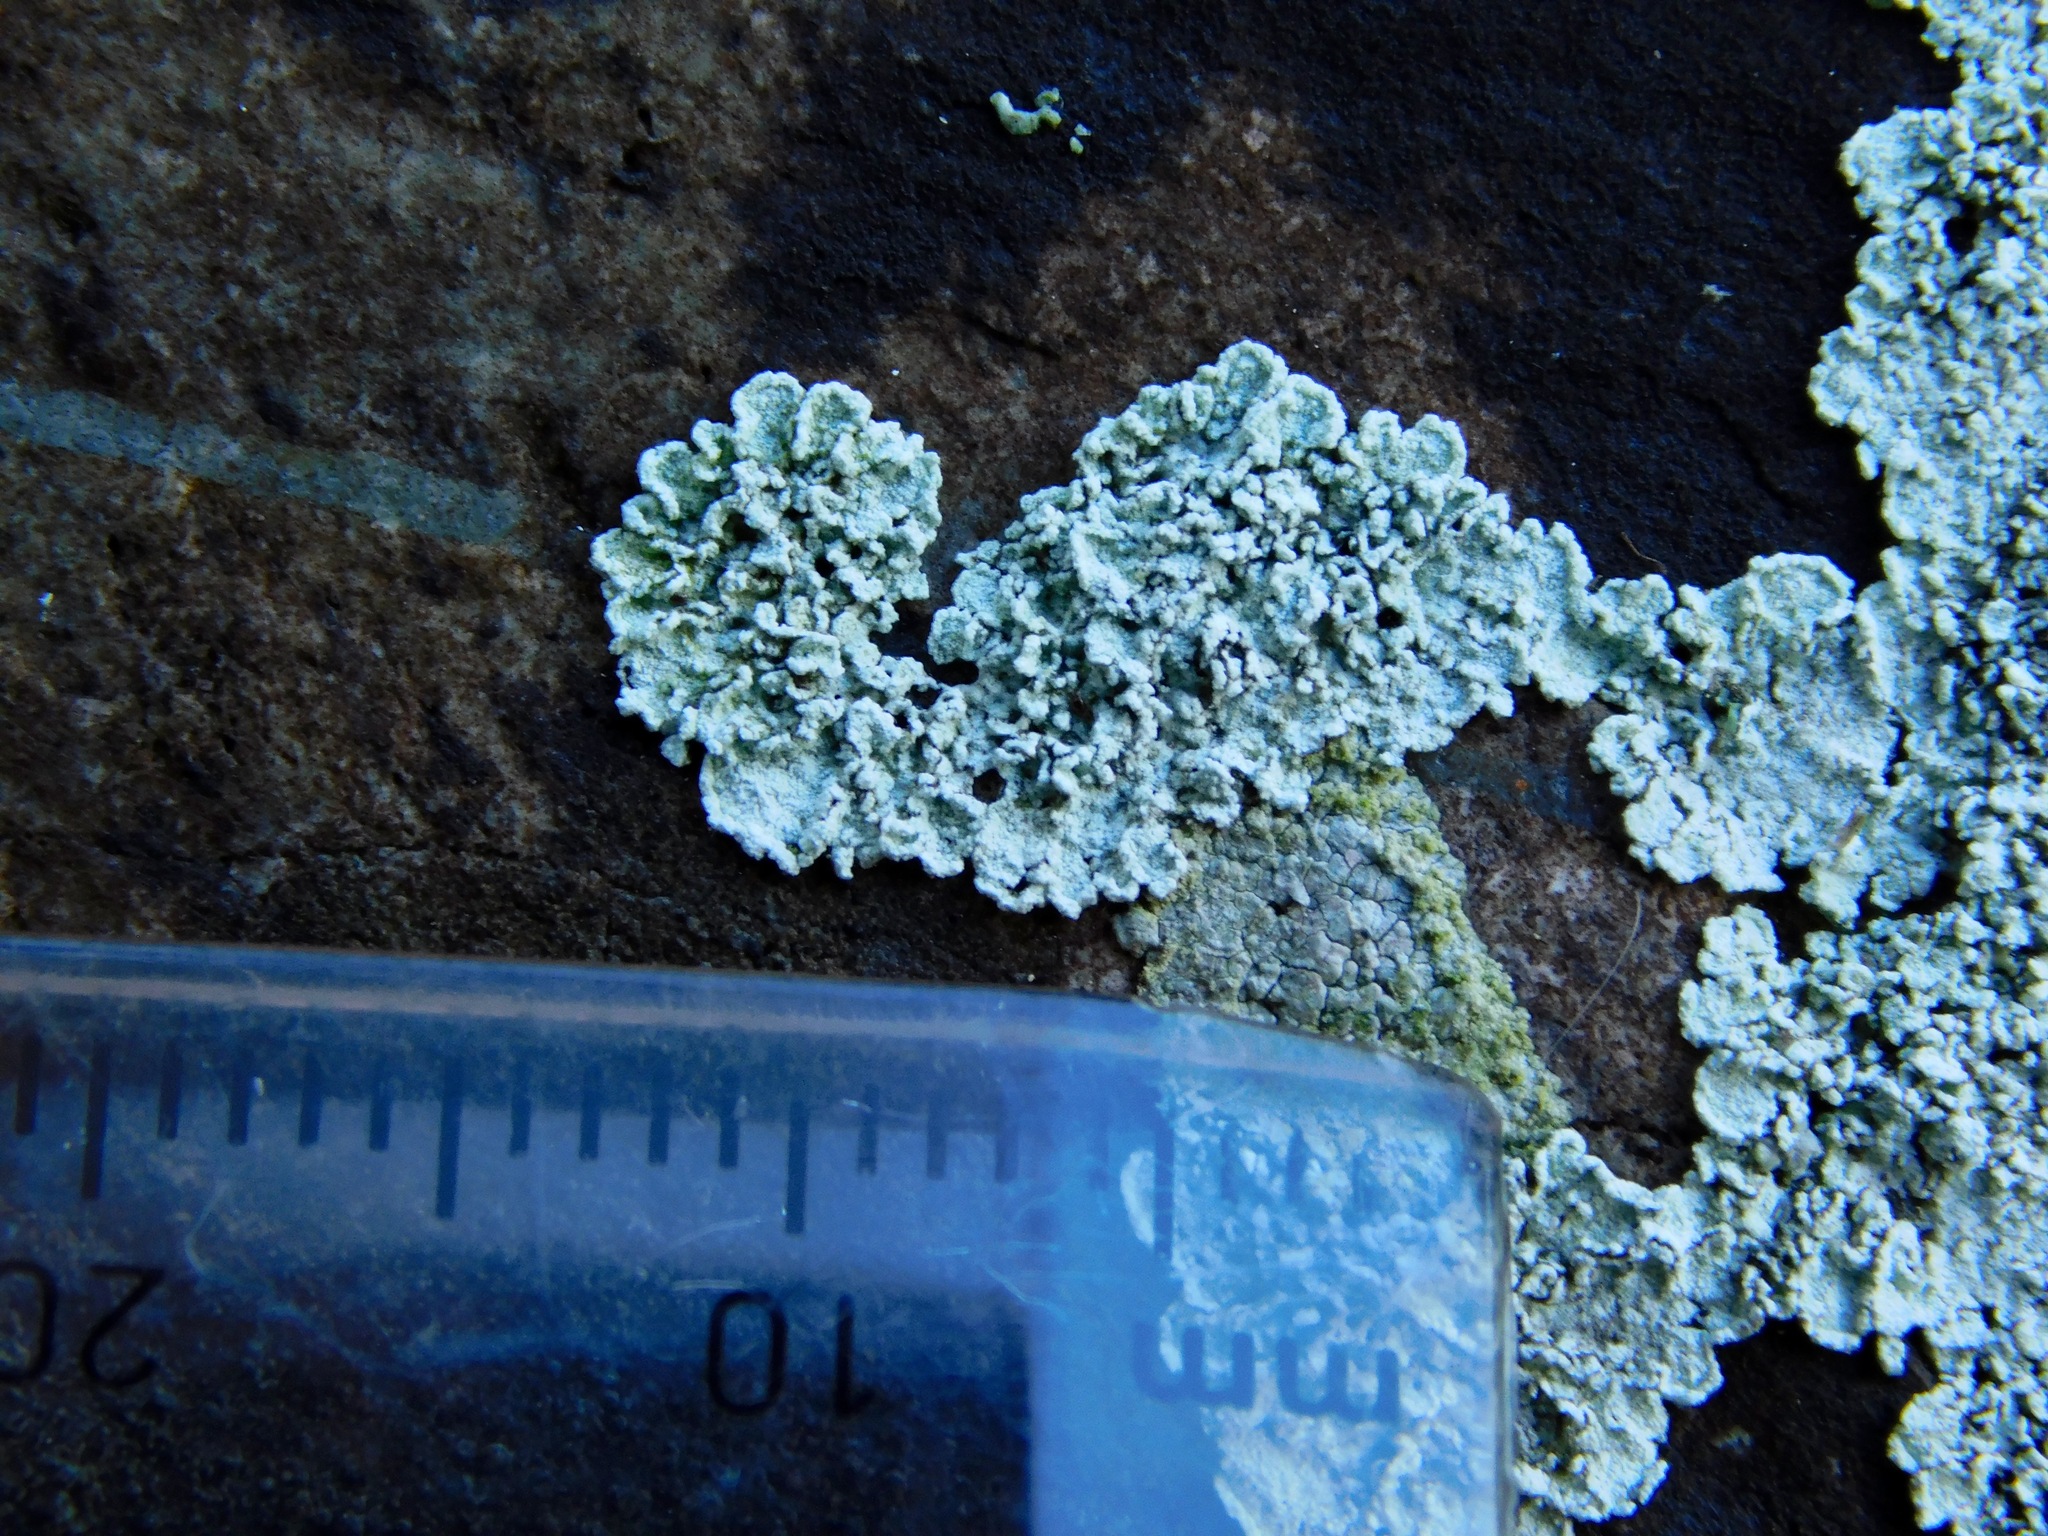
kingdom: Fungi
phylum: Ascomycota
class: Lecanoromycetes
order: Lecanorales
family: Stereocaulaceae
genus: Lepraria
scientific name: Lepraria normandinoides
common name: Elf-ear dust
